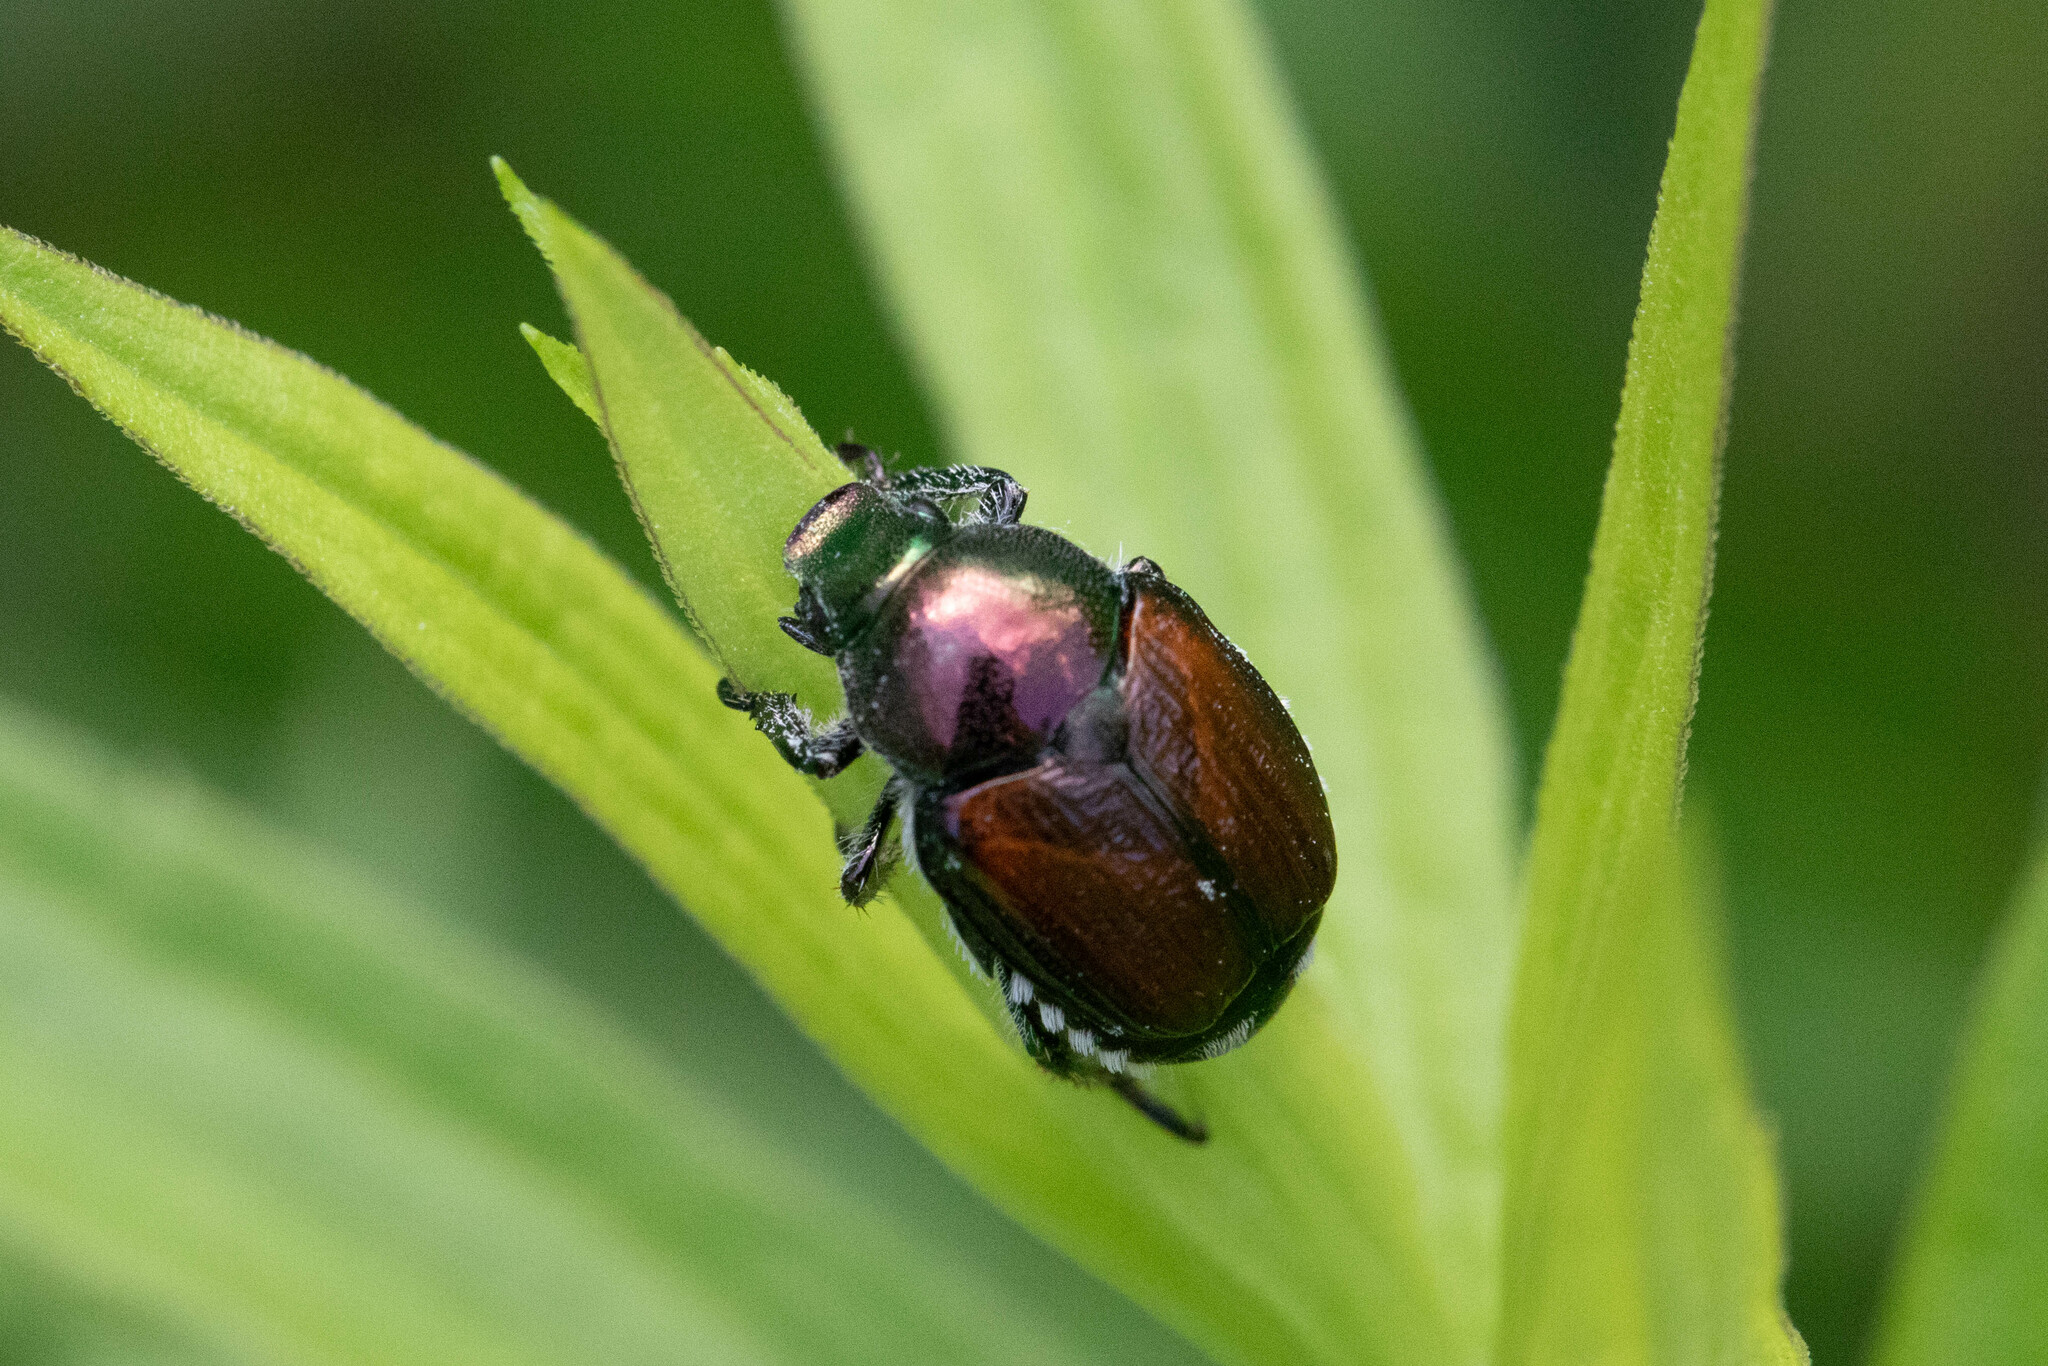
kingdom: Animalia
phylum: Arthropoda
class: Insecta
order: Coleoptera
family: Scarabaeidae
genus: Popillia
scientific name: Popillia japonica
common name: Japanese beetle
